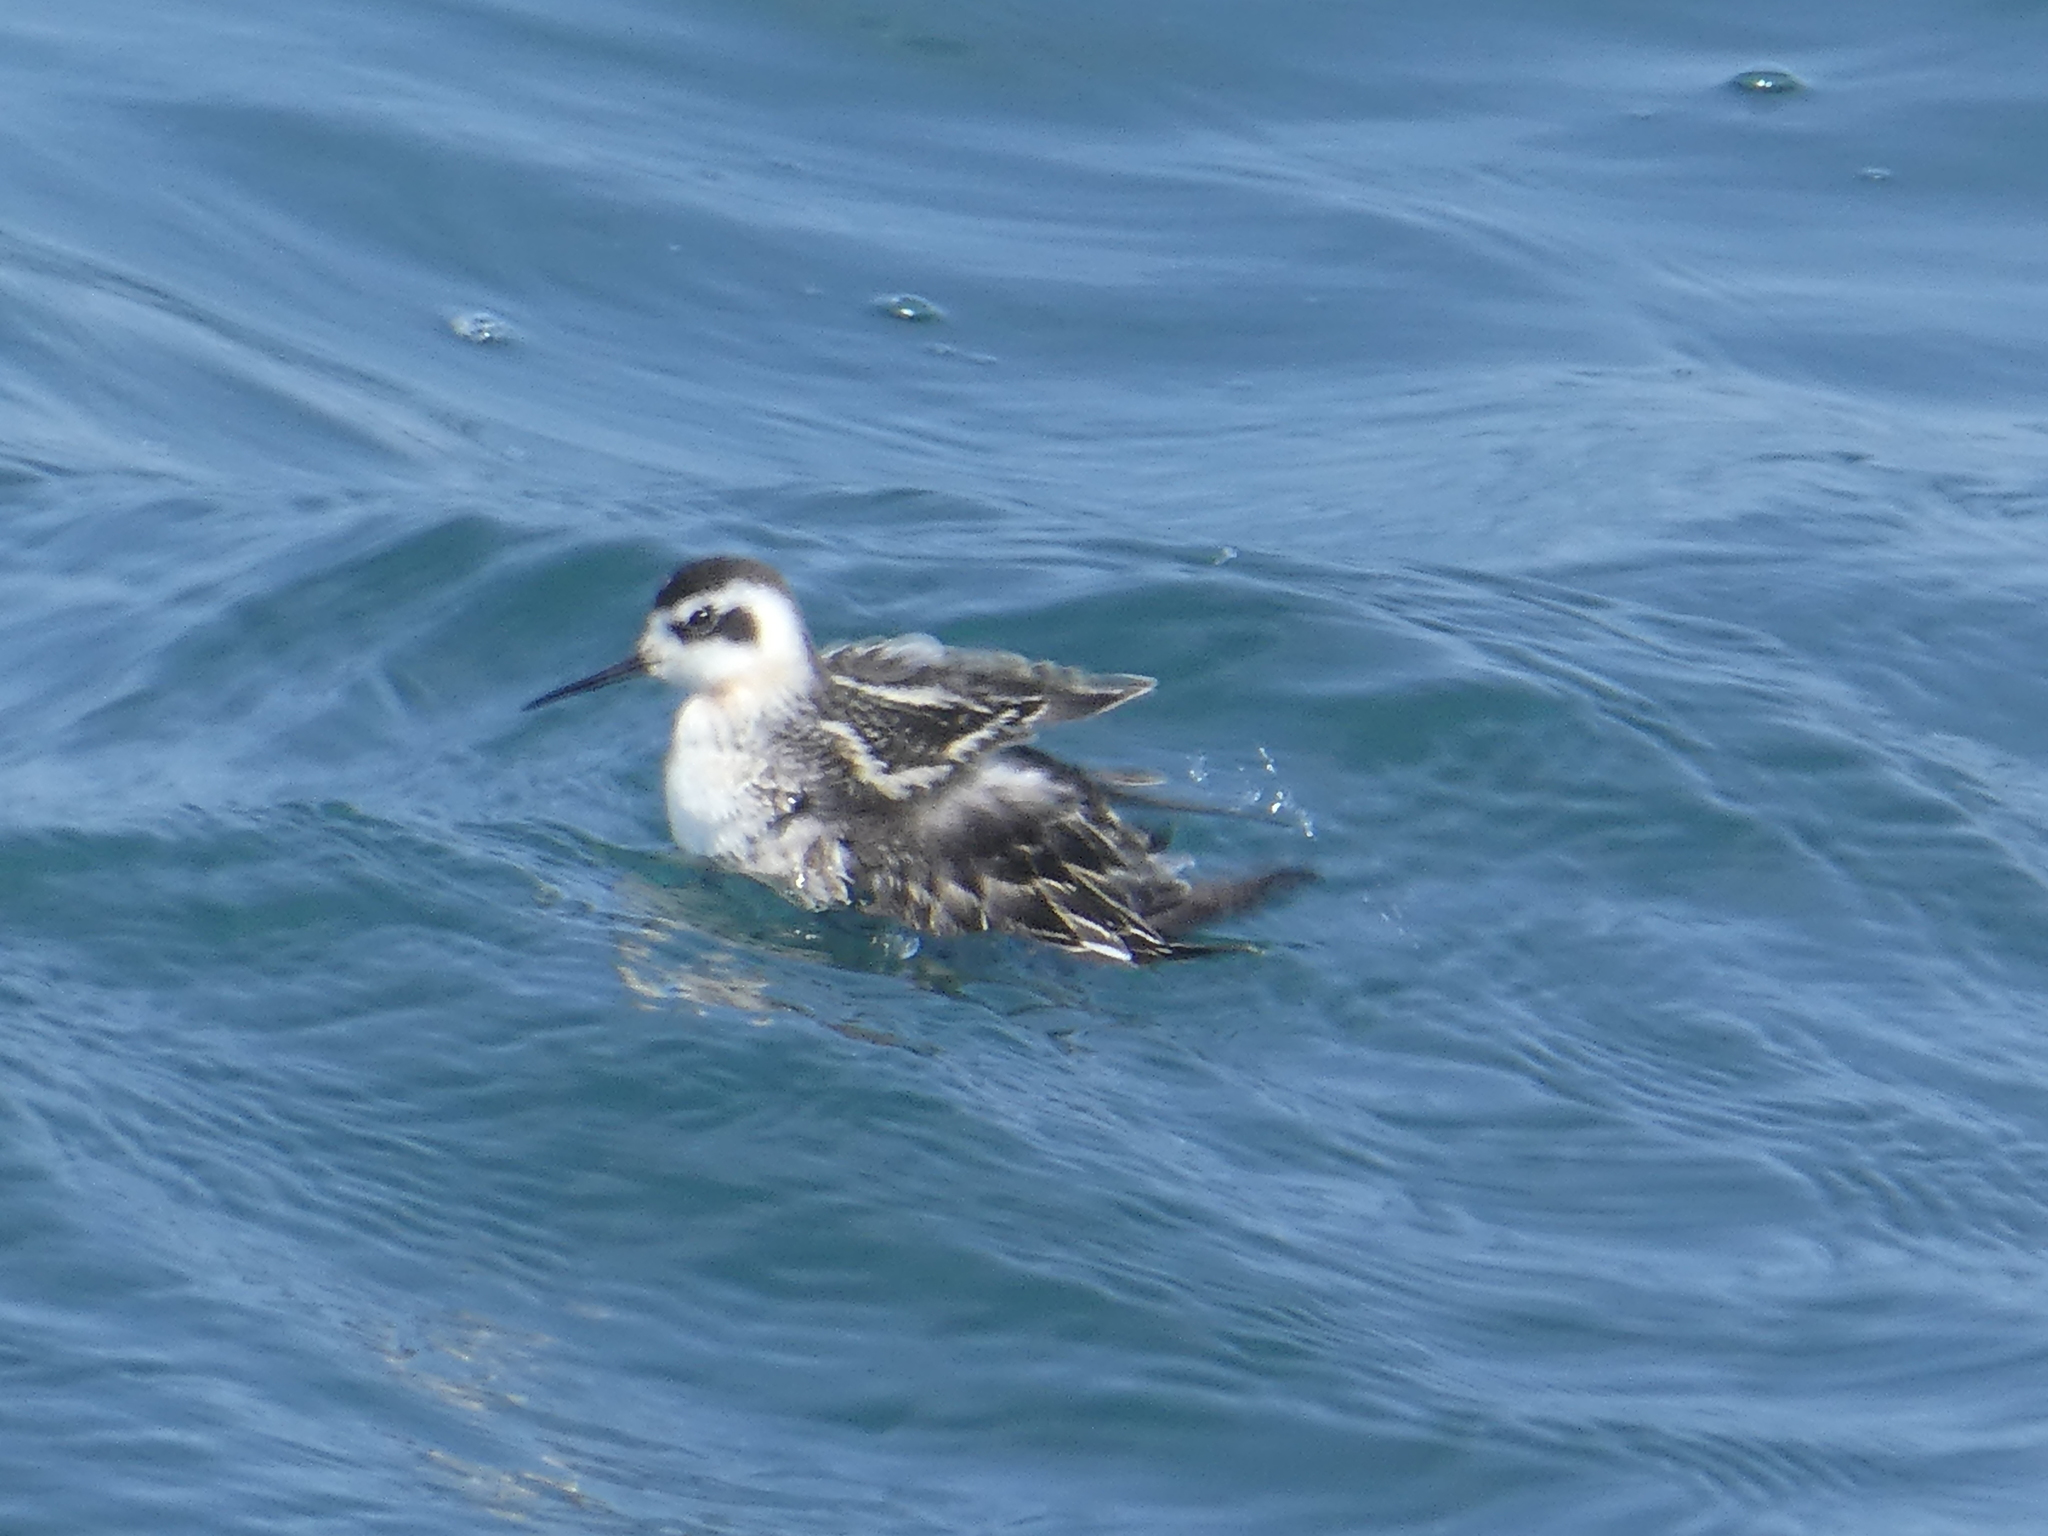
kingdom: Animalia
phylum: Chordata
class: Aves
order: Charadriiformes
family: Scolopacidae
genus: Phalaropus
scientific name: Phalaropus lobatus
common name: Red-necked phalarope
